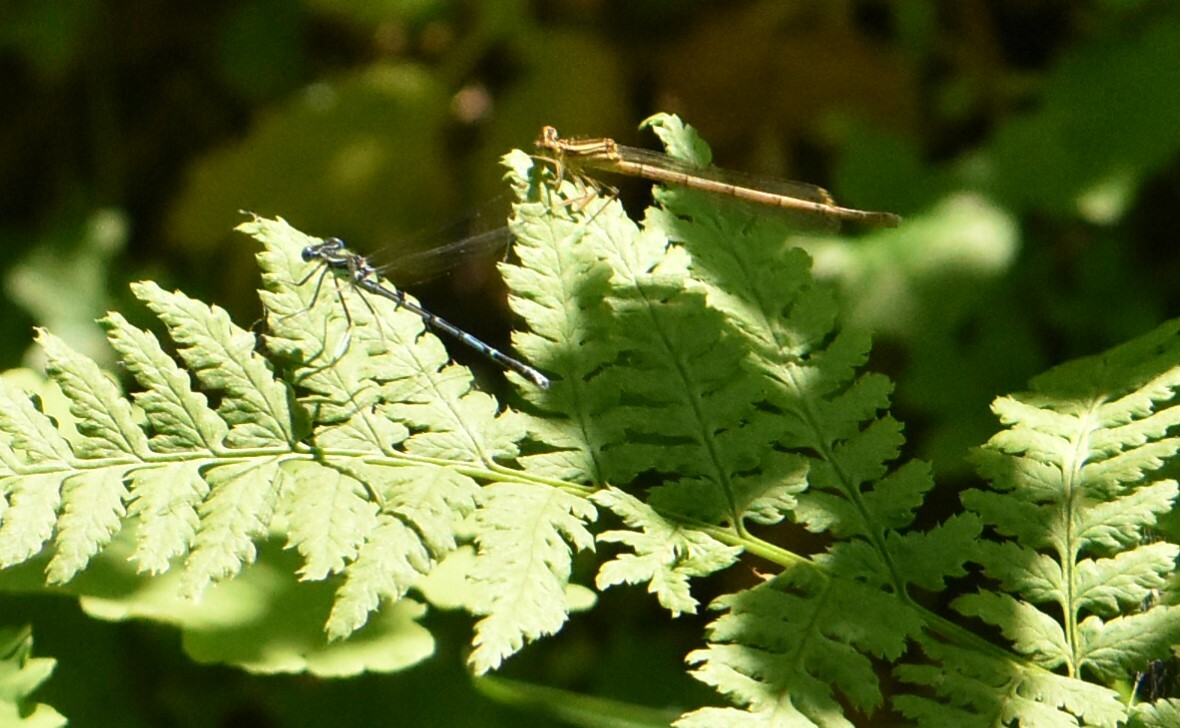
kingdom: Animalia
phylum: Arthropoda
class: Insecta
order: Odonata
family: Platycnemididae
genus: Platycnemis
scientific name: Platycnemis pennipes
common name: White-legged damselfly
